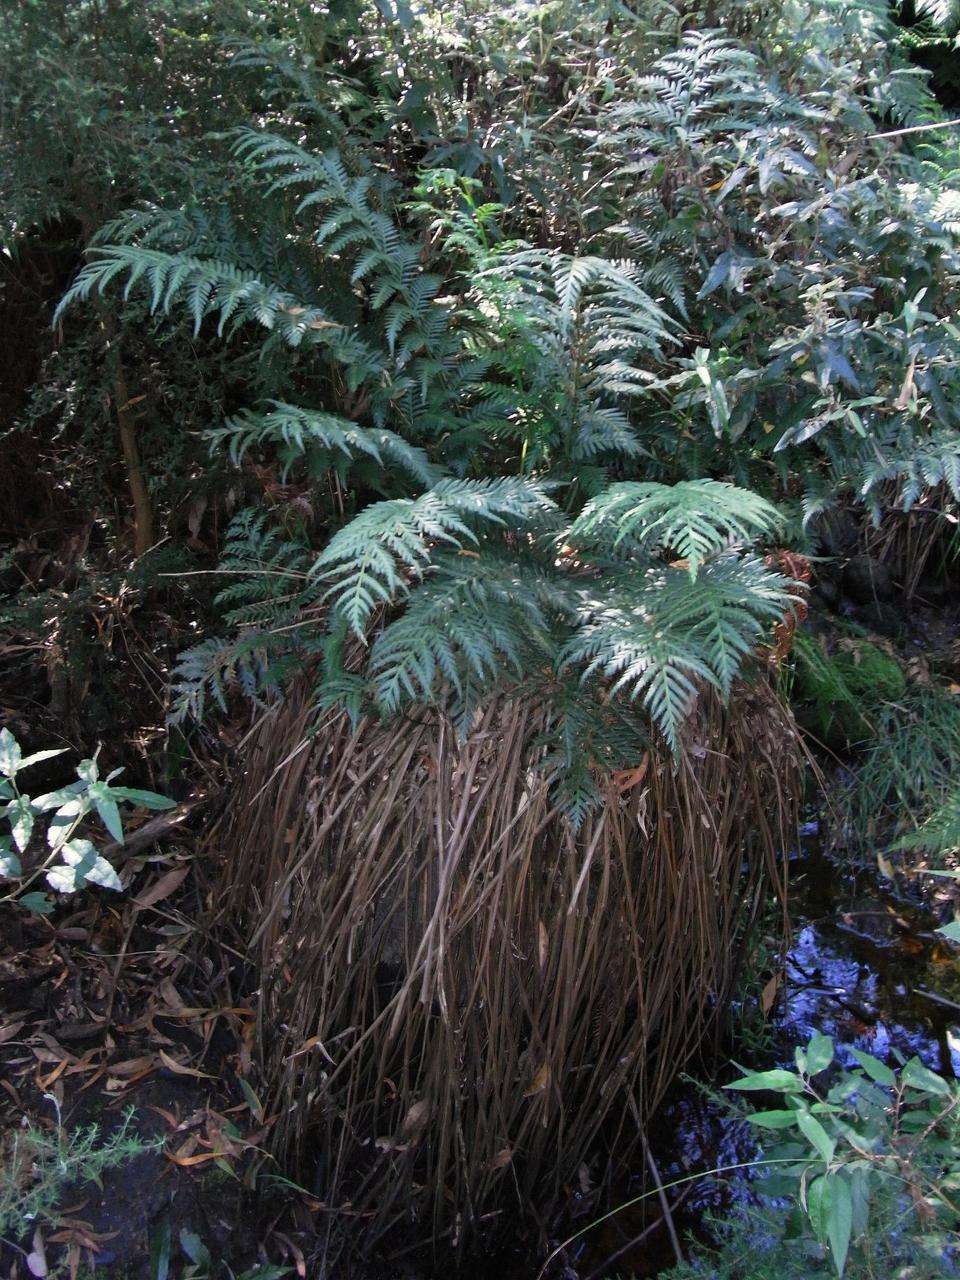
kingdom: Plantae
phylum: Tracheophyta
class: Polypodiopsida
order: Osmundales
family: Osmundaceae
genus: Todea
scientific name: Todea barbara
